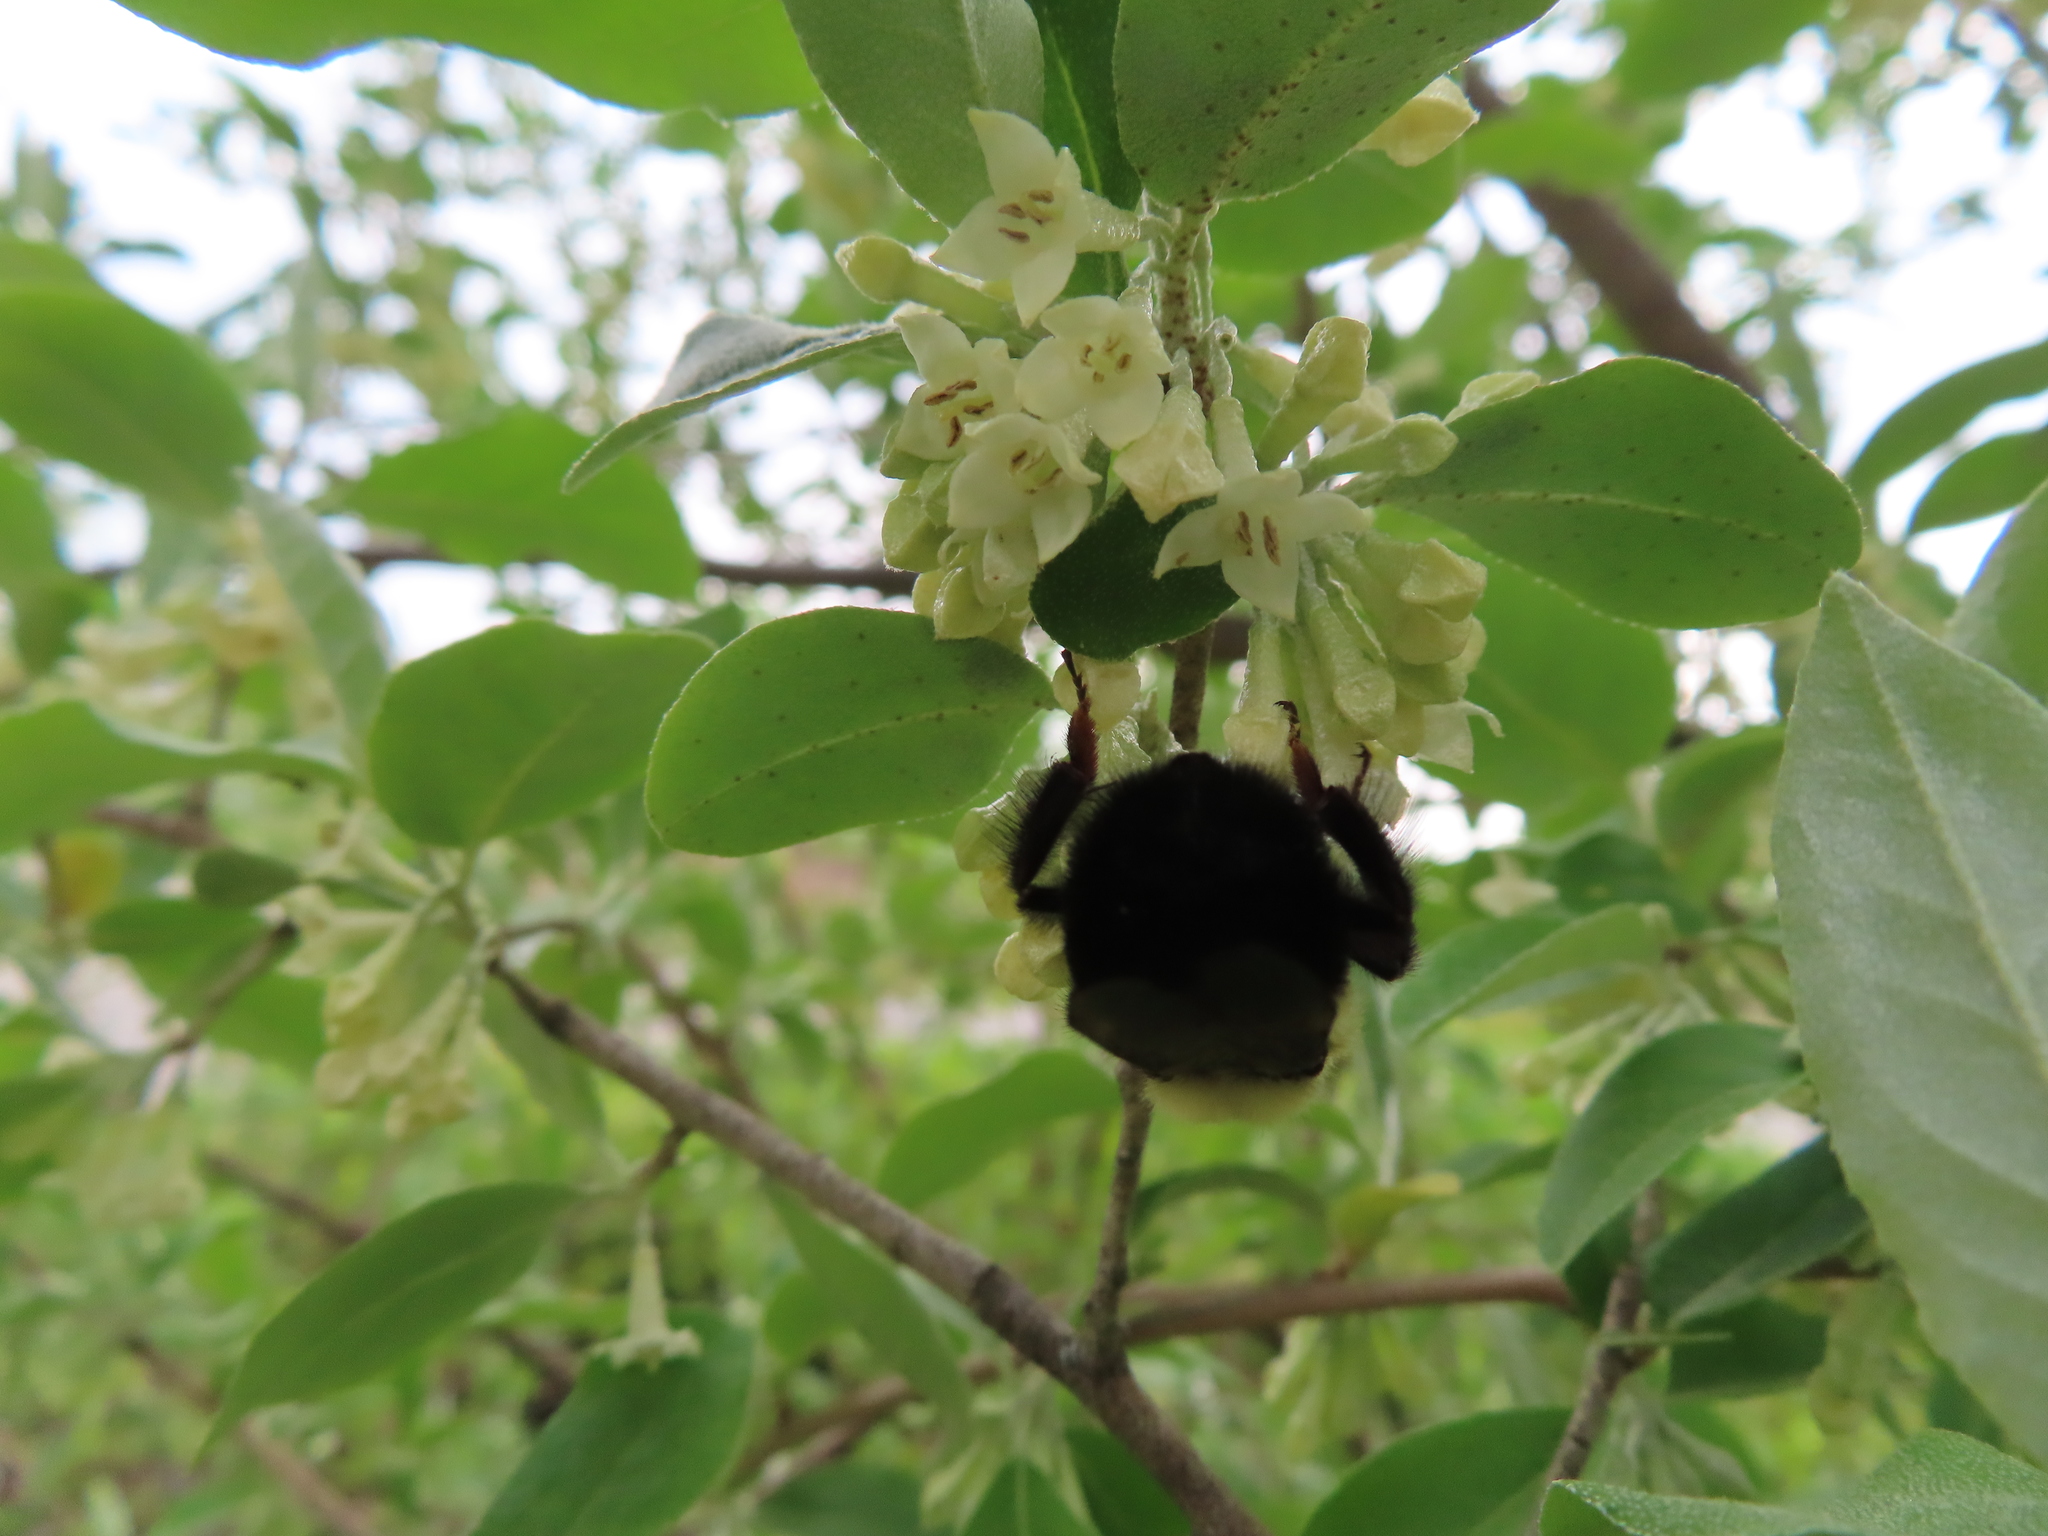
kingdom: Animalia
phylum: Arthropoda
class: Insecta
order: Hymenoptera
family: Apidae
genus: Bombus
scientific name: Bombus bimaculatus
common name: Two-spotted bumble bee
